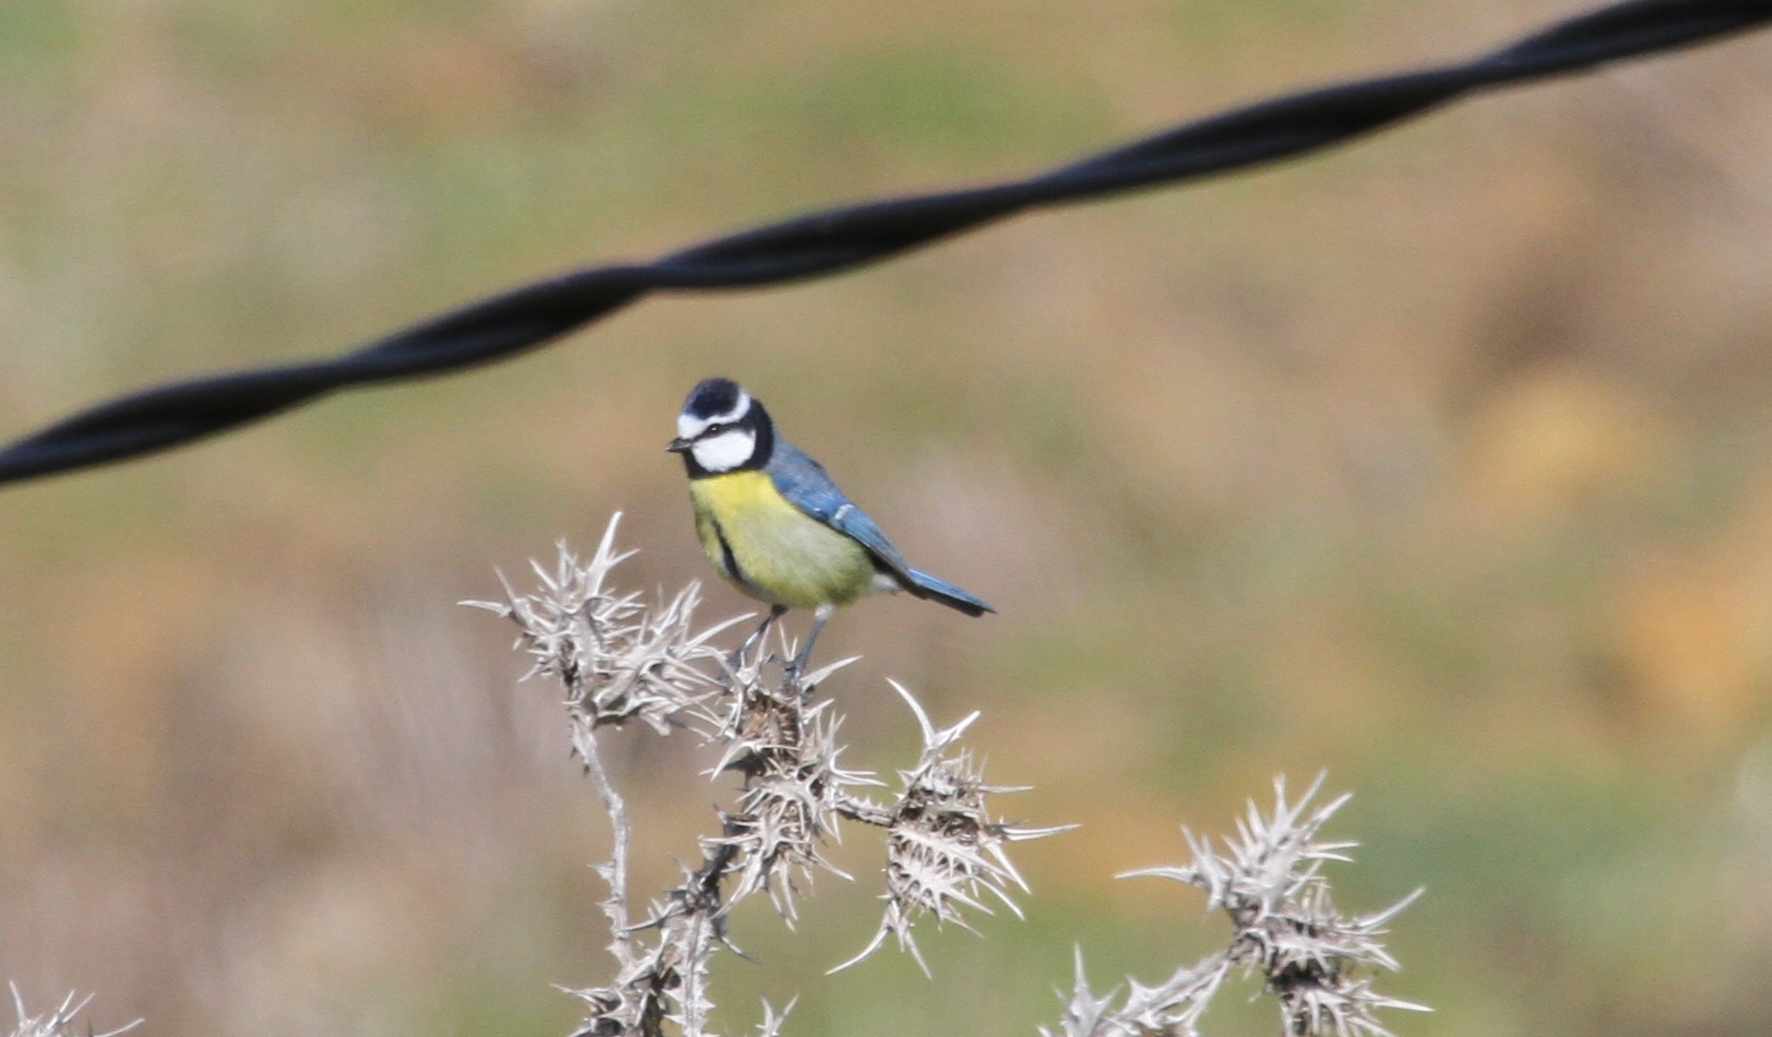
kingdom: Animalia
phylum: Chordata
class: Aves
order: Passeriformes
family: Paridae
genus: Cyanistes
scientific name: Cyanistes teneriffae
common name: African blue tit
